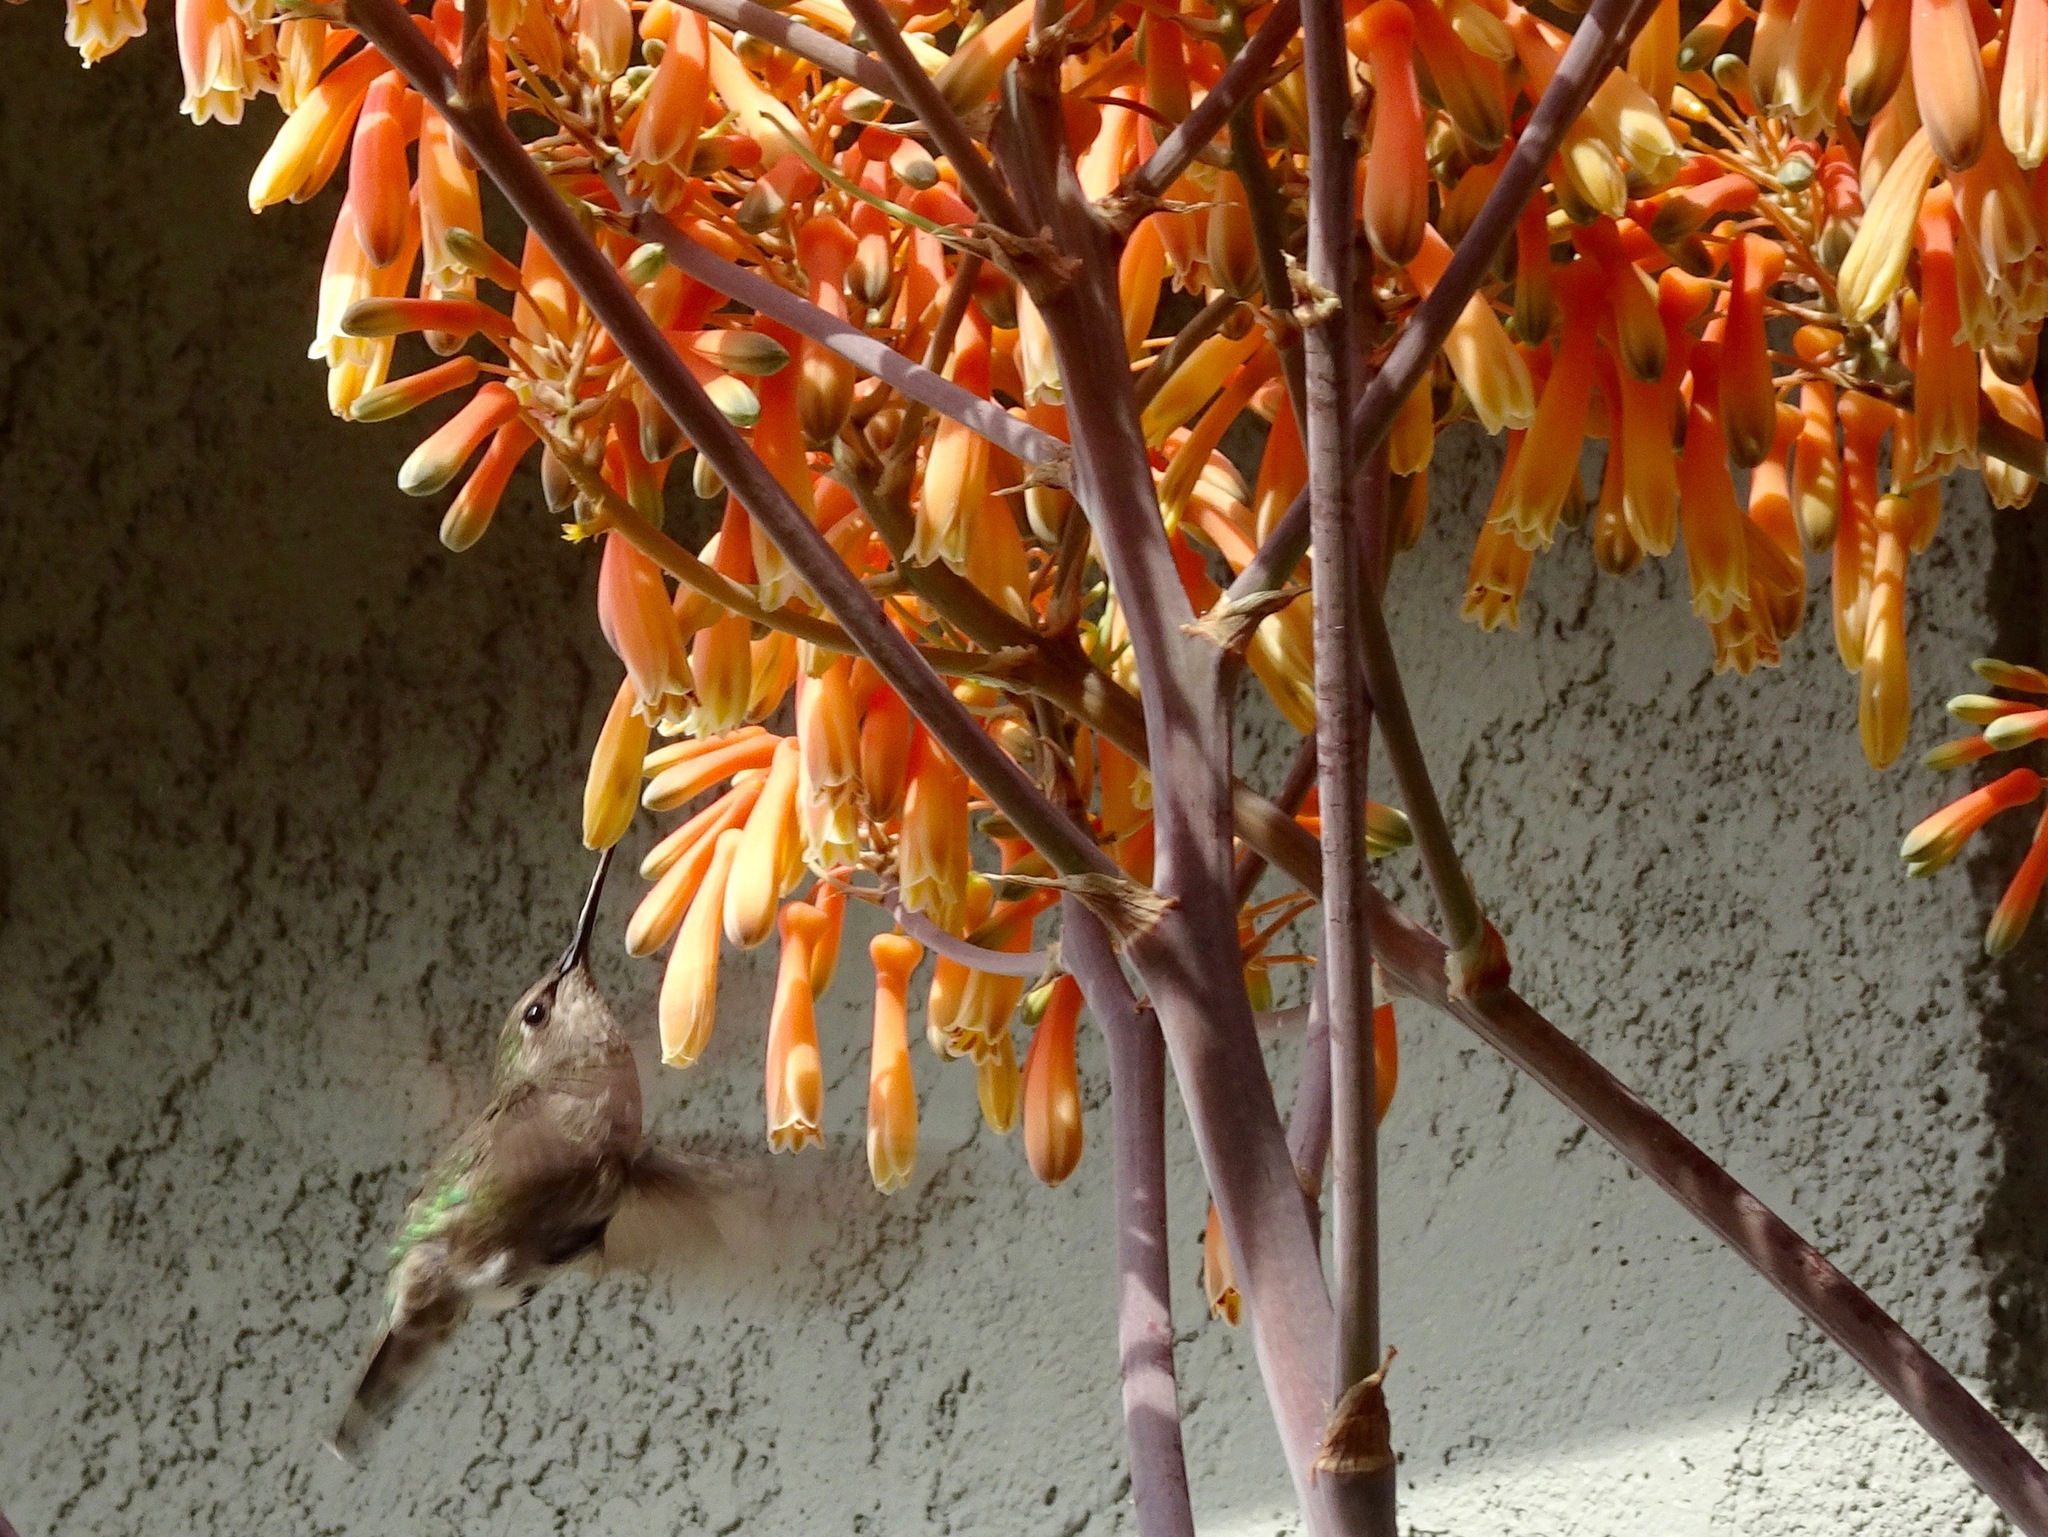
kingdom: Animalia
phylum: Chordata
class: Aves
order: Apodiformes
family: Trochilidae
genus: Calypte
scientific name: Calypte anna
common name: Anna's hummingbird
